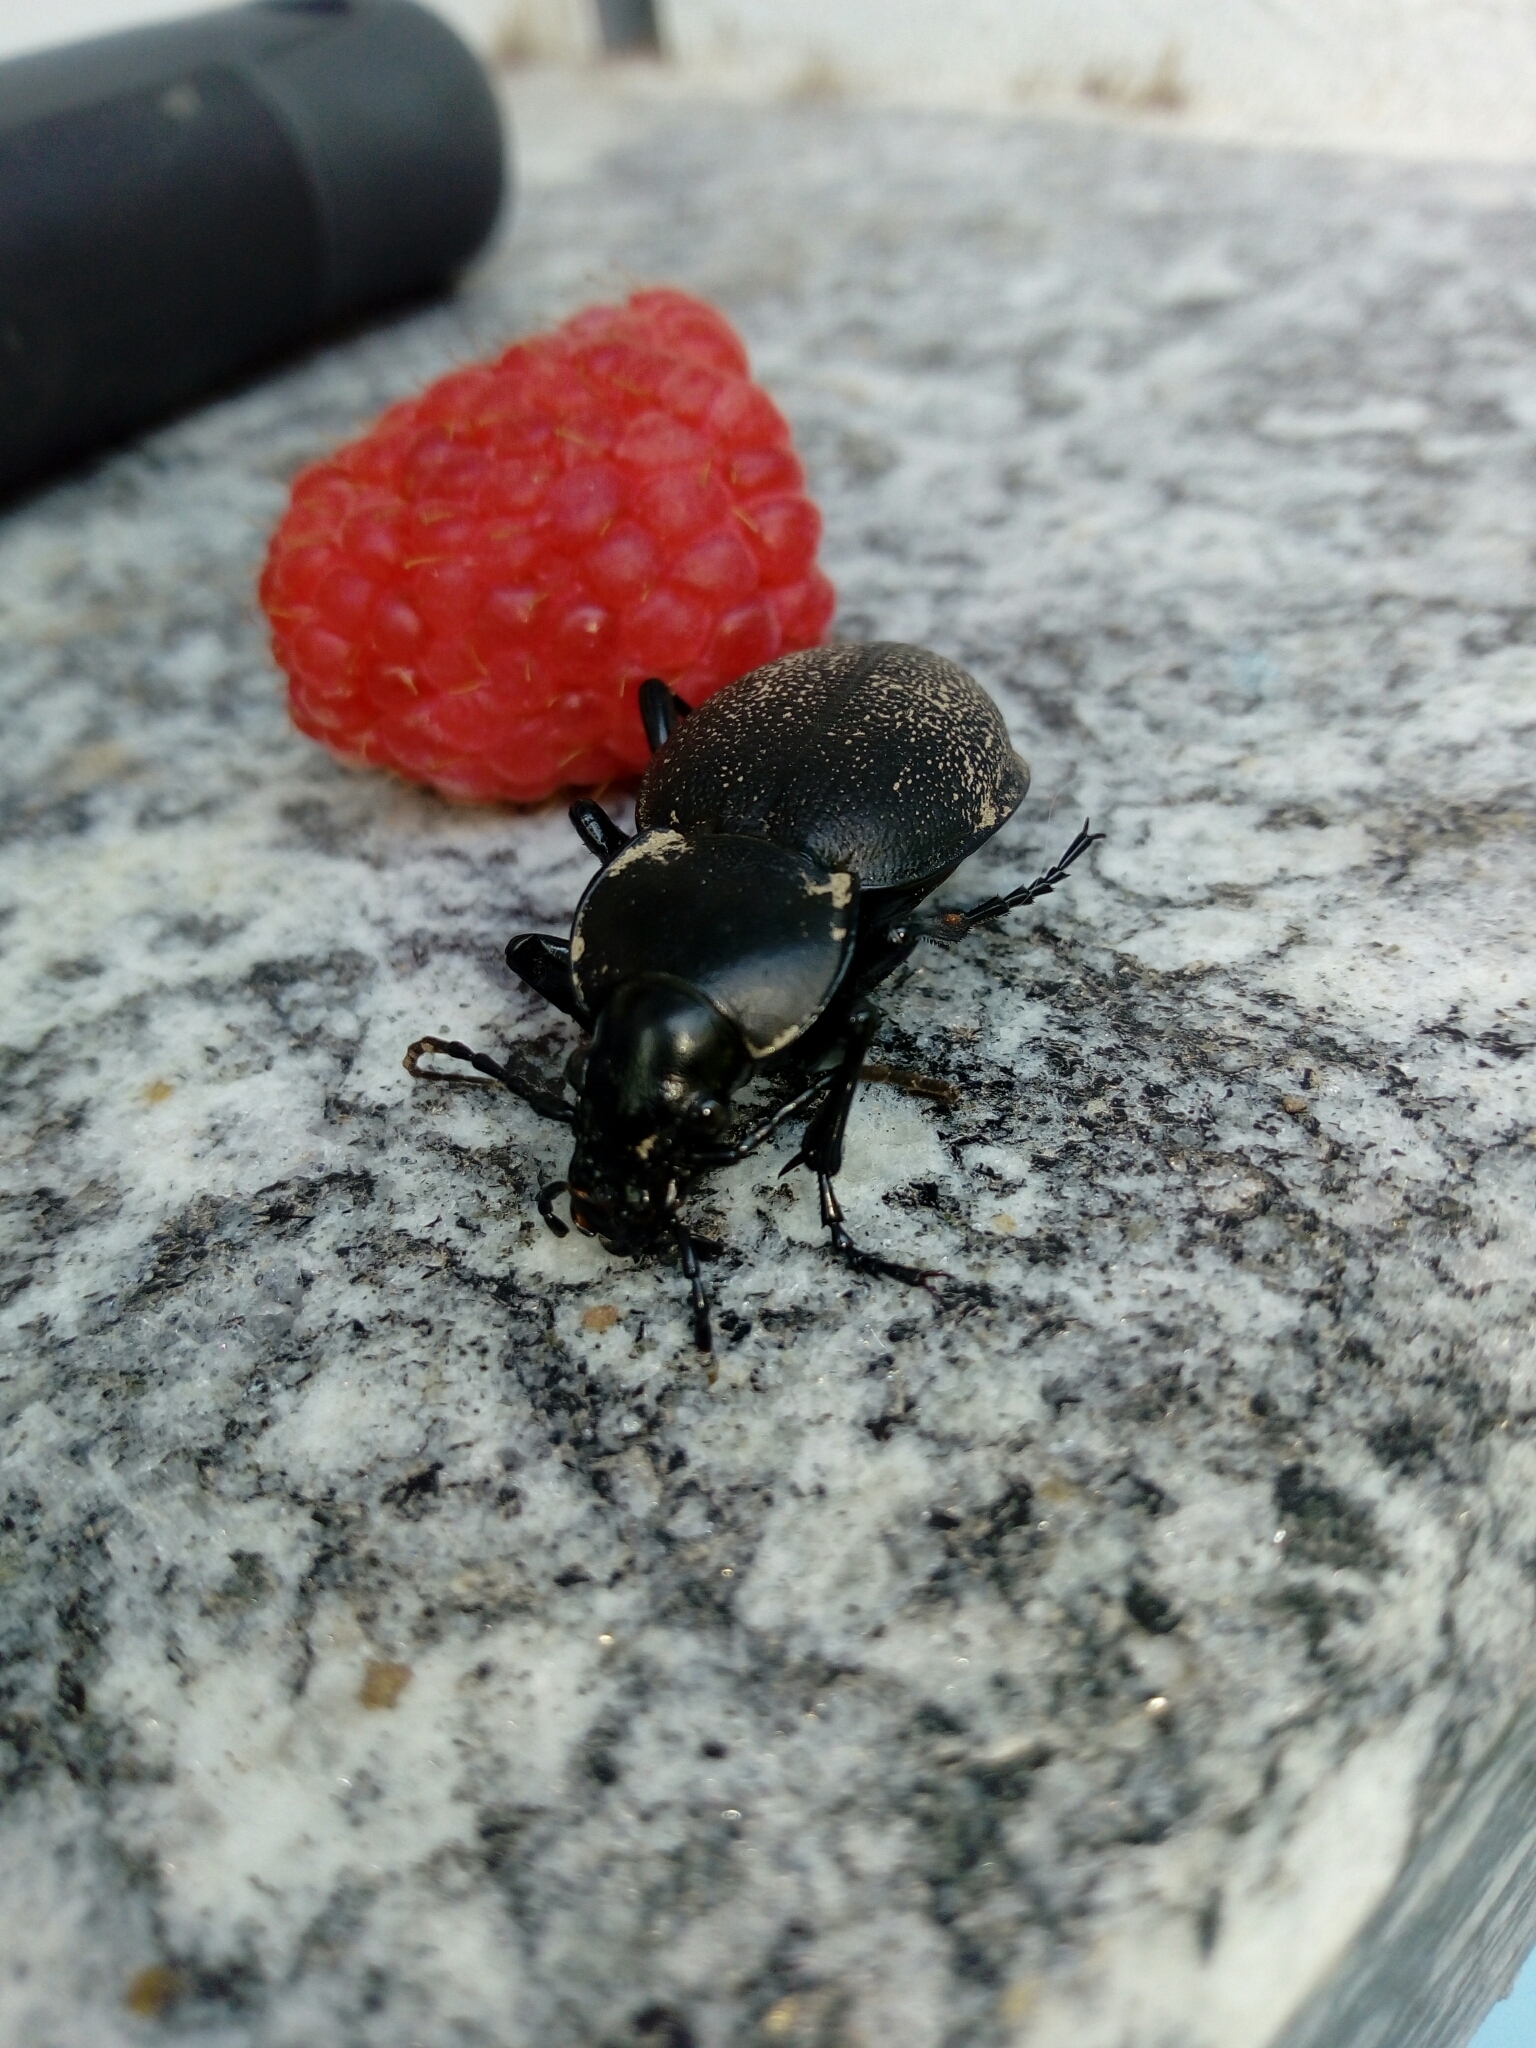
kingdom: Animalia
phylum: Arthropoda
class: Insecta
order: Coleoptera
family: Carabidae
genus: Carabus
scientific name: Carabus coriaceus
